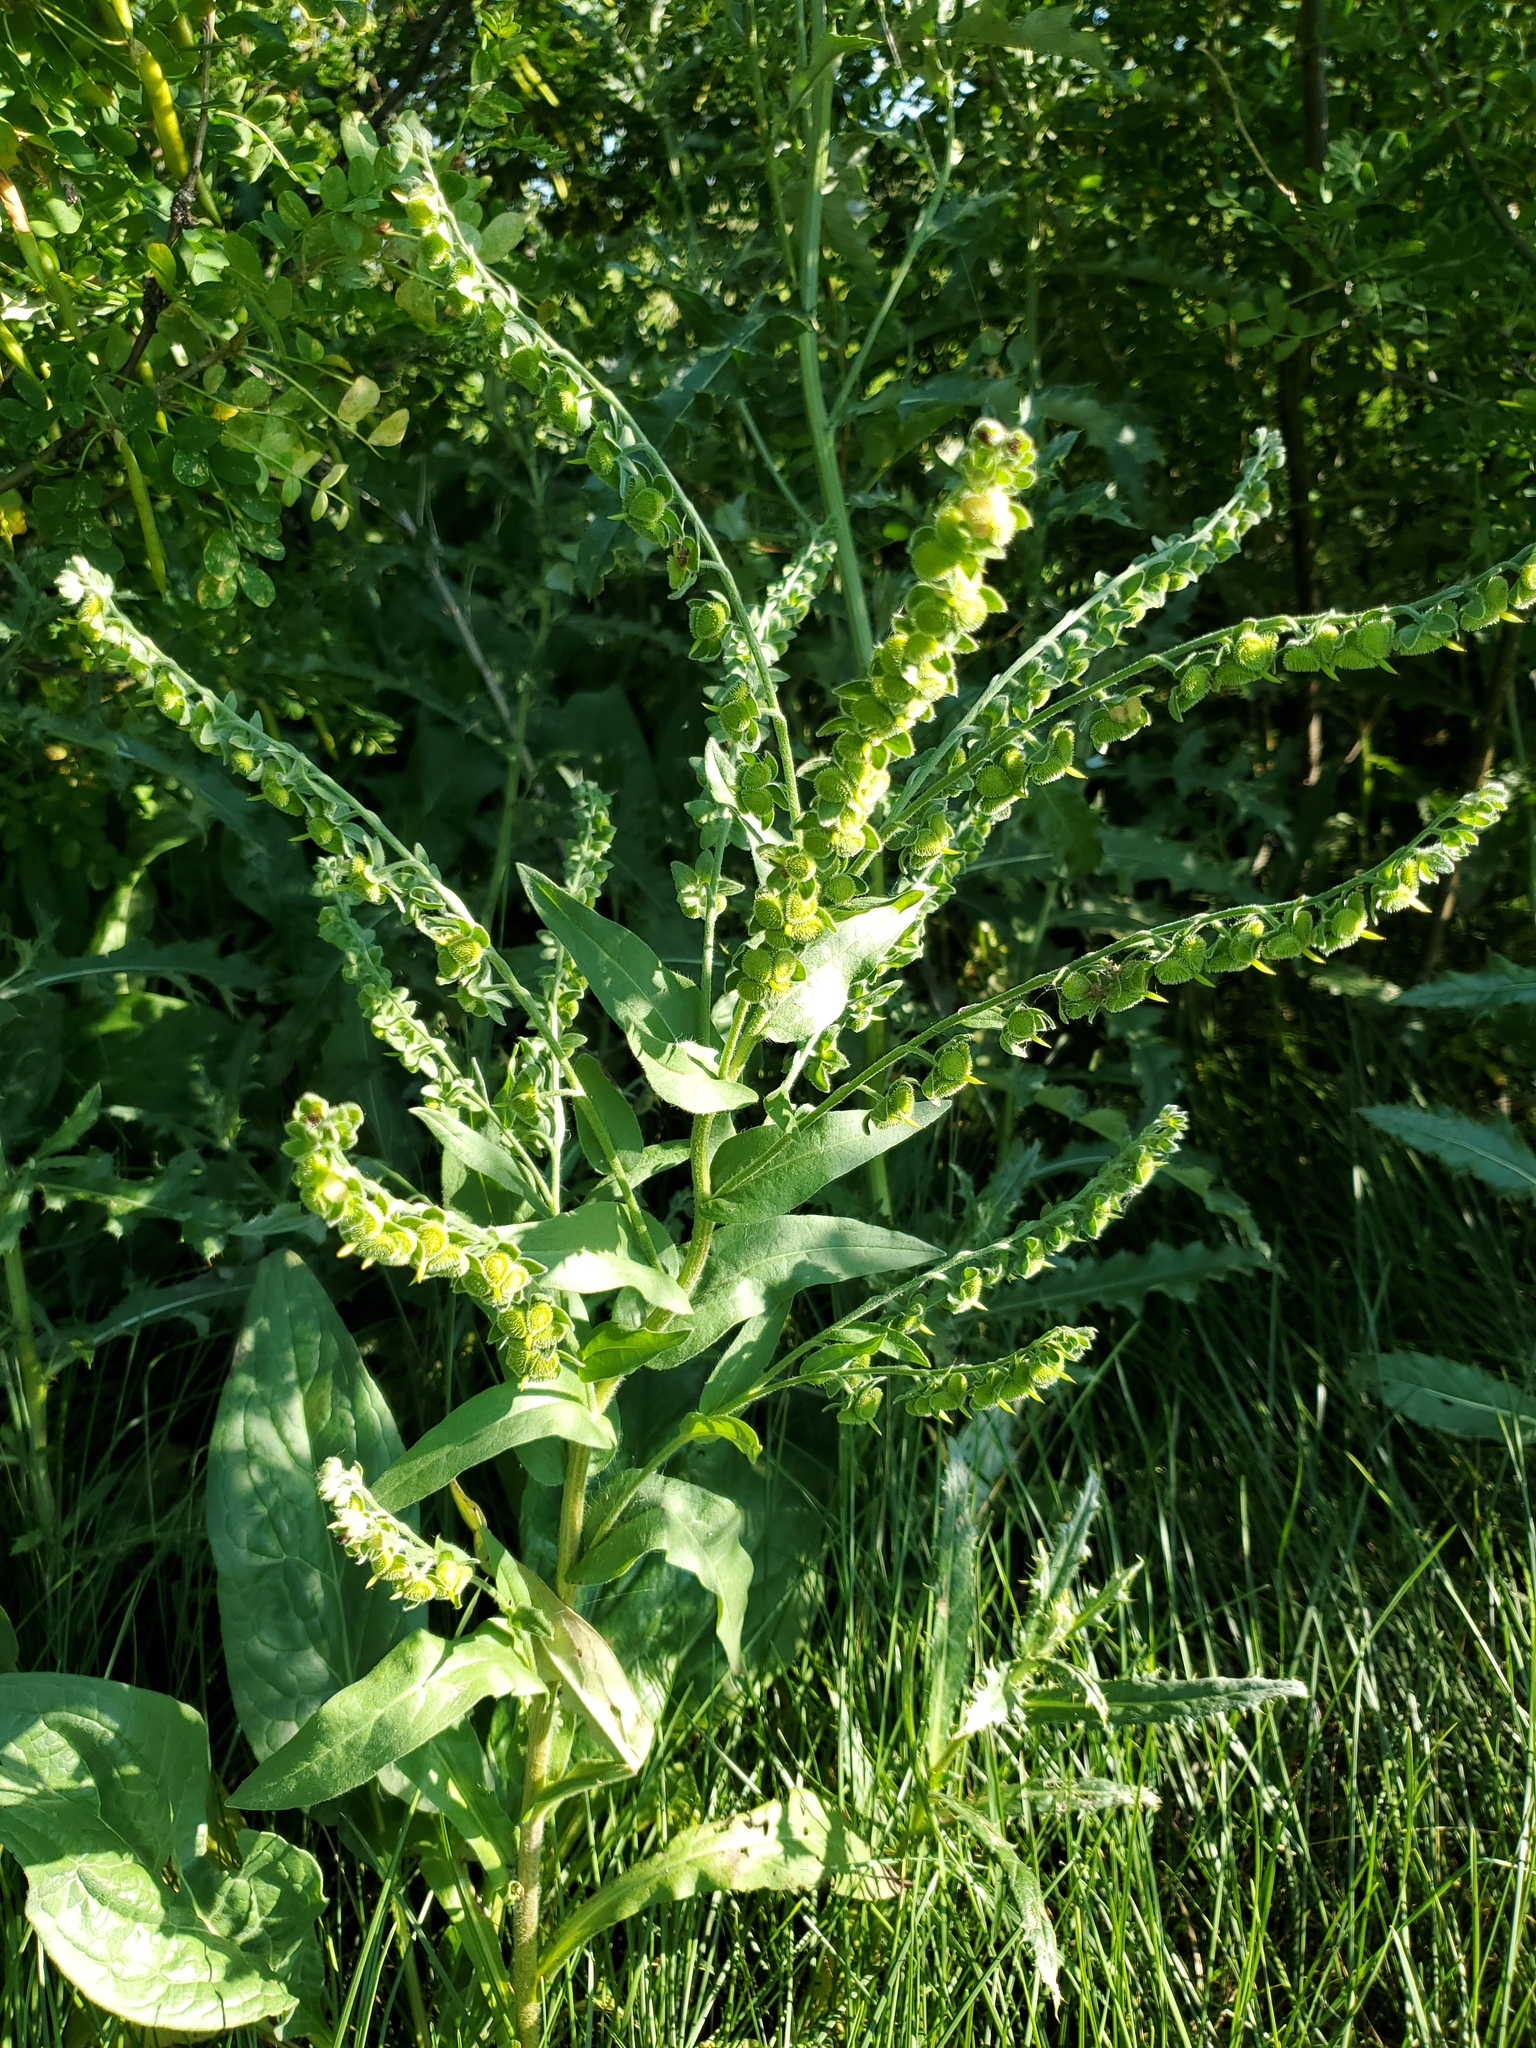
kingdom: Plantae
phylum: Tracheophyta
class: Magnoliopsida
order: Boraginales
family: Boraginaceae
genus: Cynoglossum
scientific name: Cynoglossum officinale
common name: Hound's-tongue
